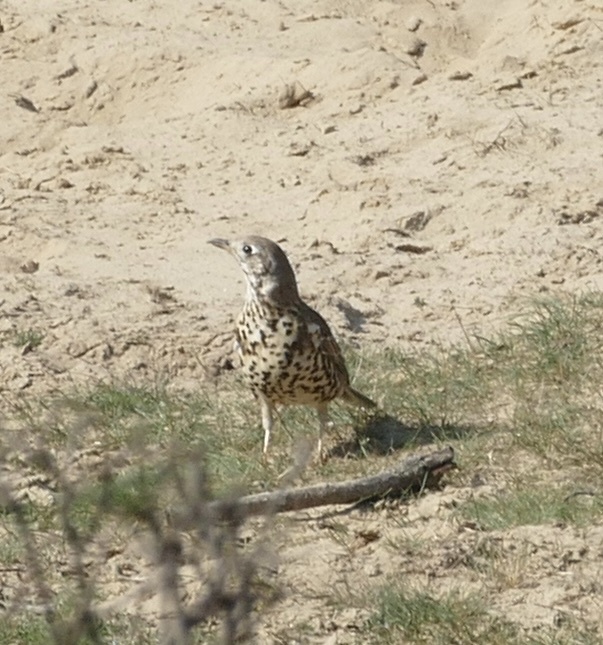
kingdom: Animalia
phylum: Chordata
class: Aves
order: Passeriformes
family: Turdidae
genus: Turdus
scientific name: Turdus viscivorus
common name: Mistle thrush
